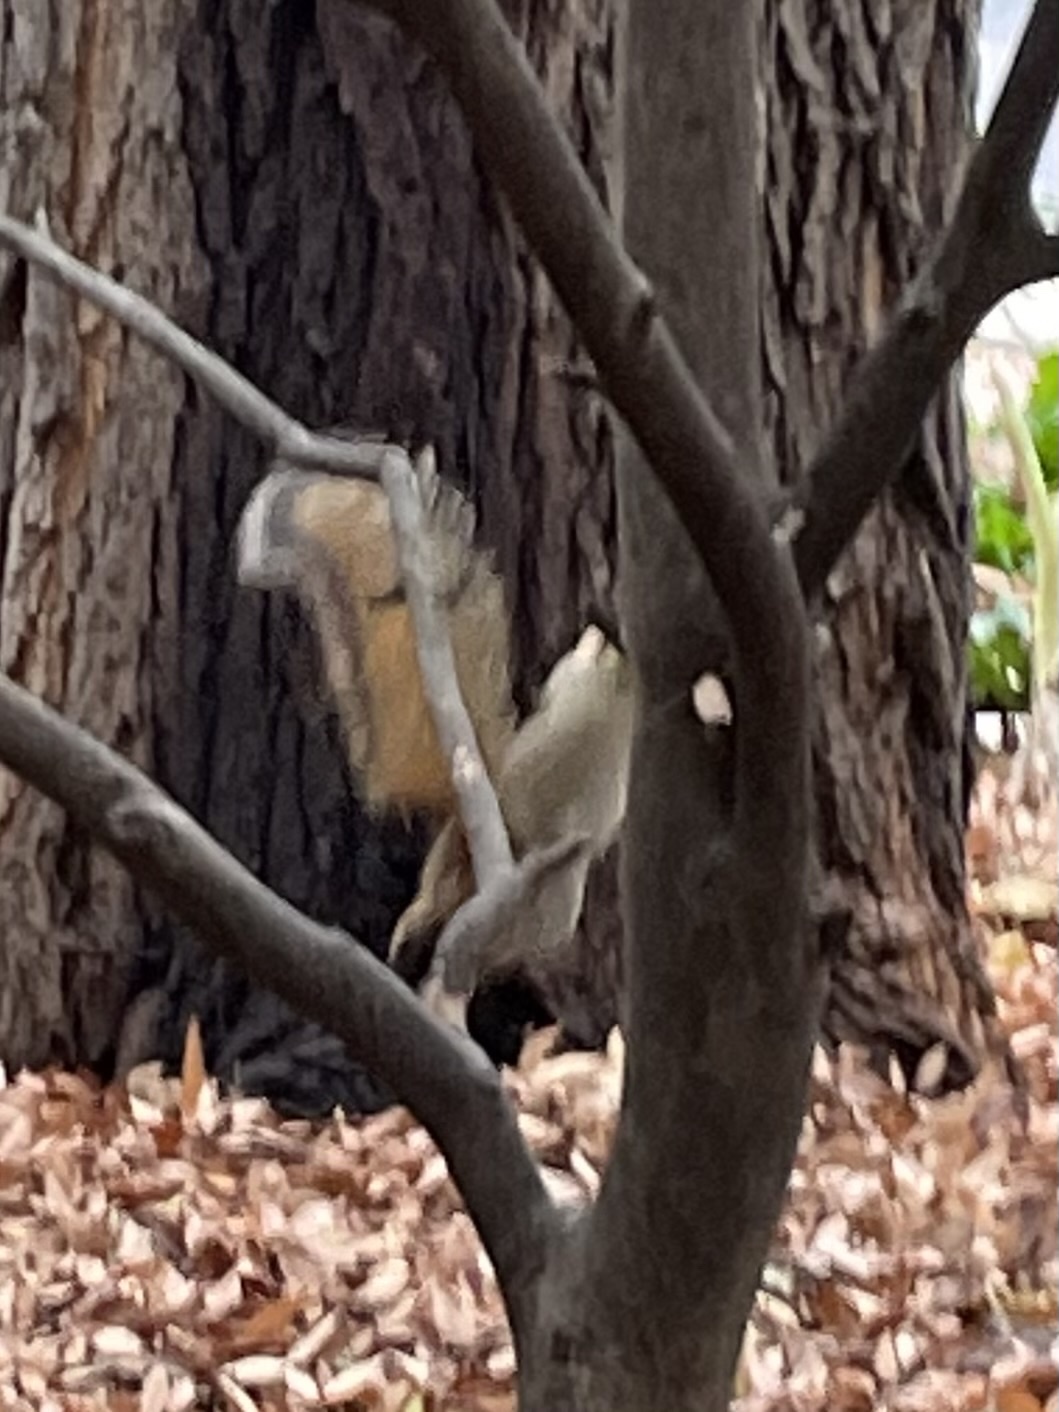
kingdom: Animalia
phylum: Chordata
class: Mammalia
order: Rodentia
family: Sciuridae
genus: Sciurus
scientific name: Sciurus niger
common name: Fox squirrel
